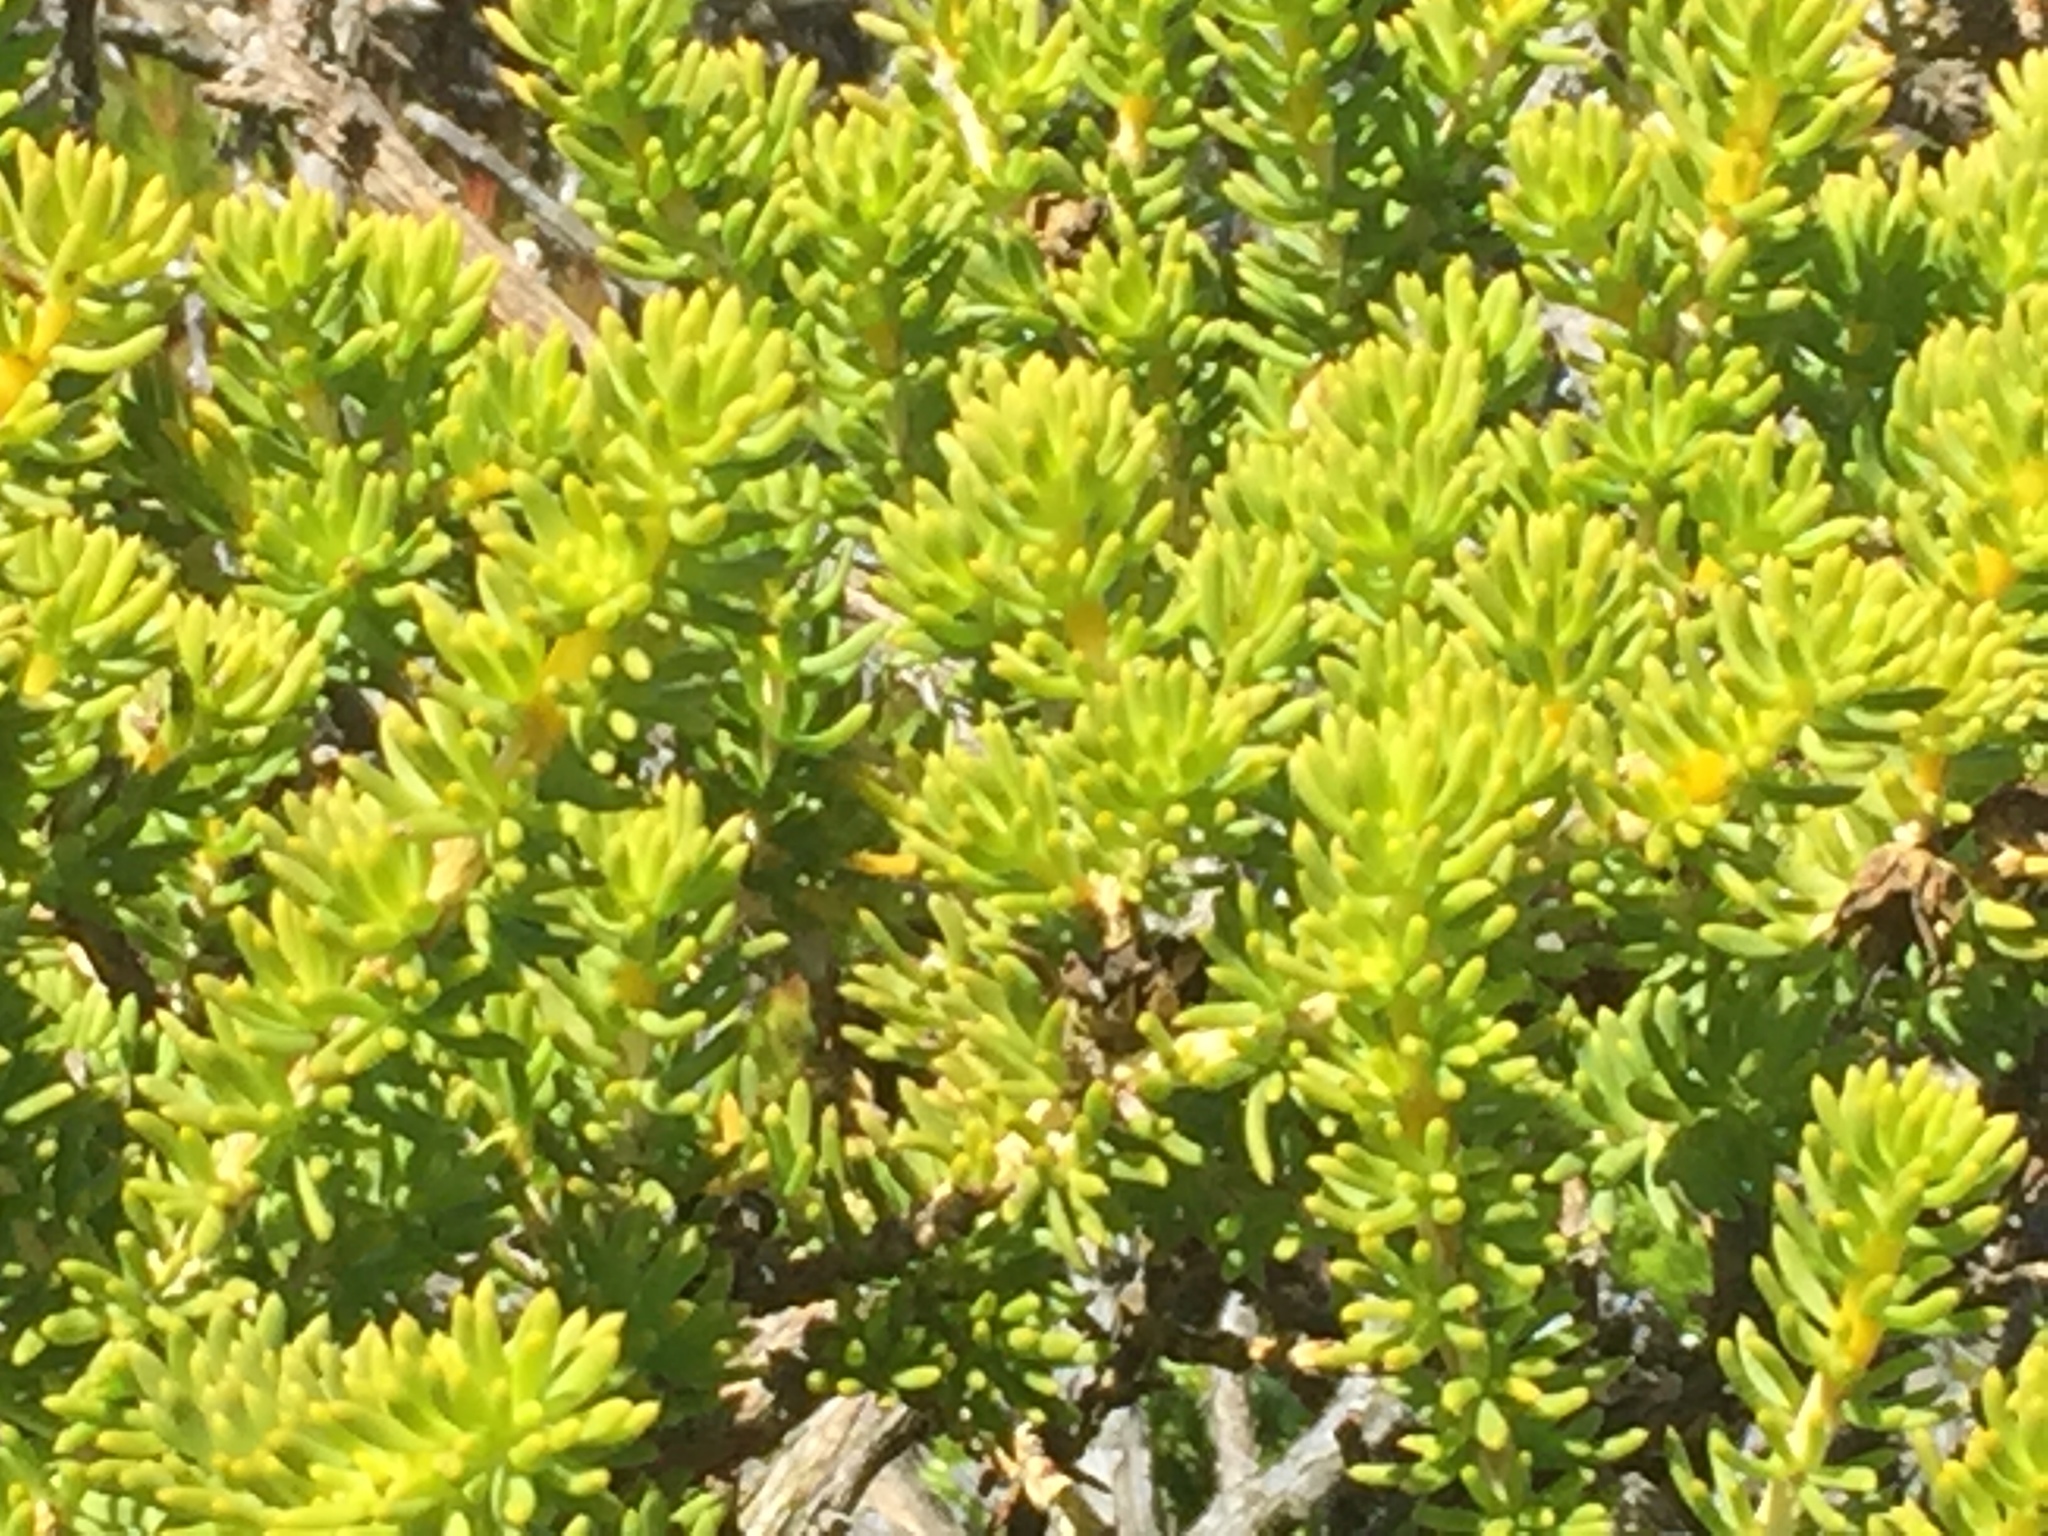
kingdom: Plantae
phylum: Tracheophyta
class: Magnoliopsida
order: Fabales
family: Fabaceae
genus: Aspalathus
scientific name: Aspalathus carnosa
